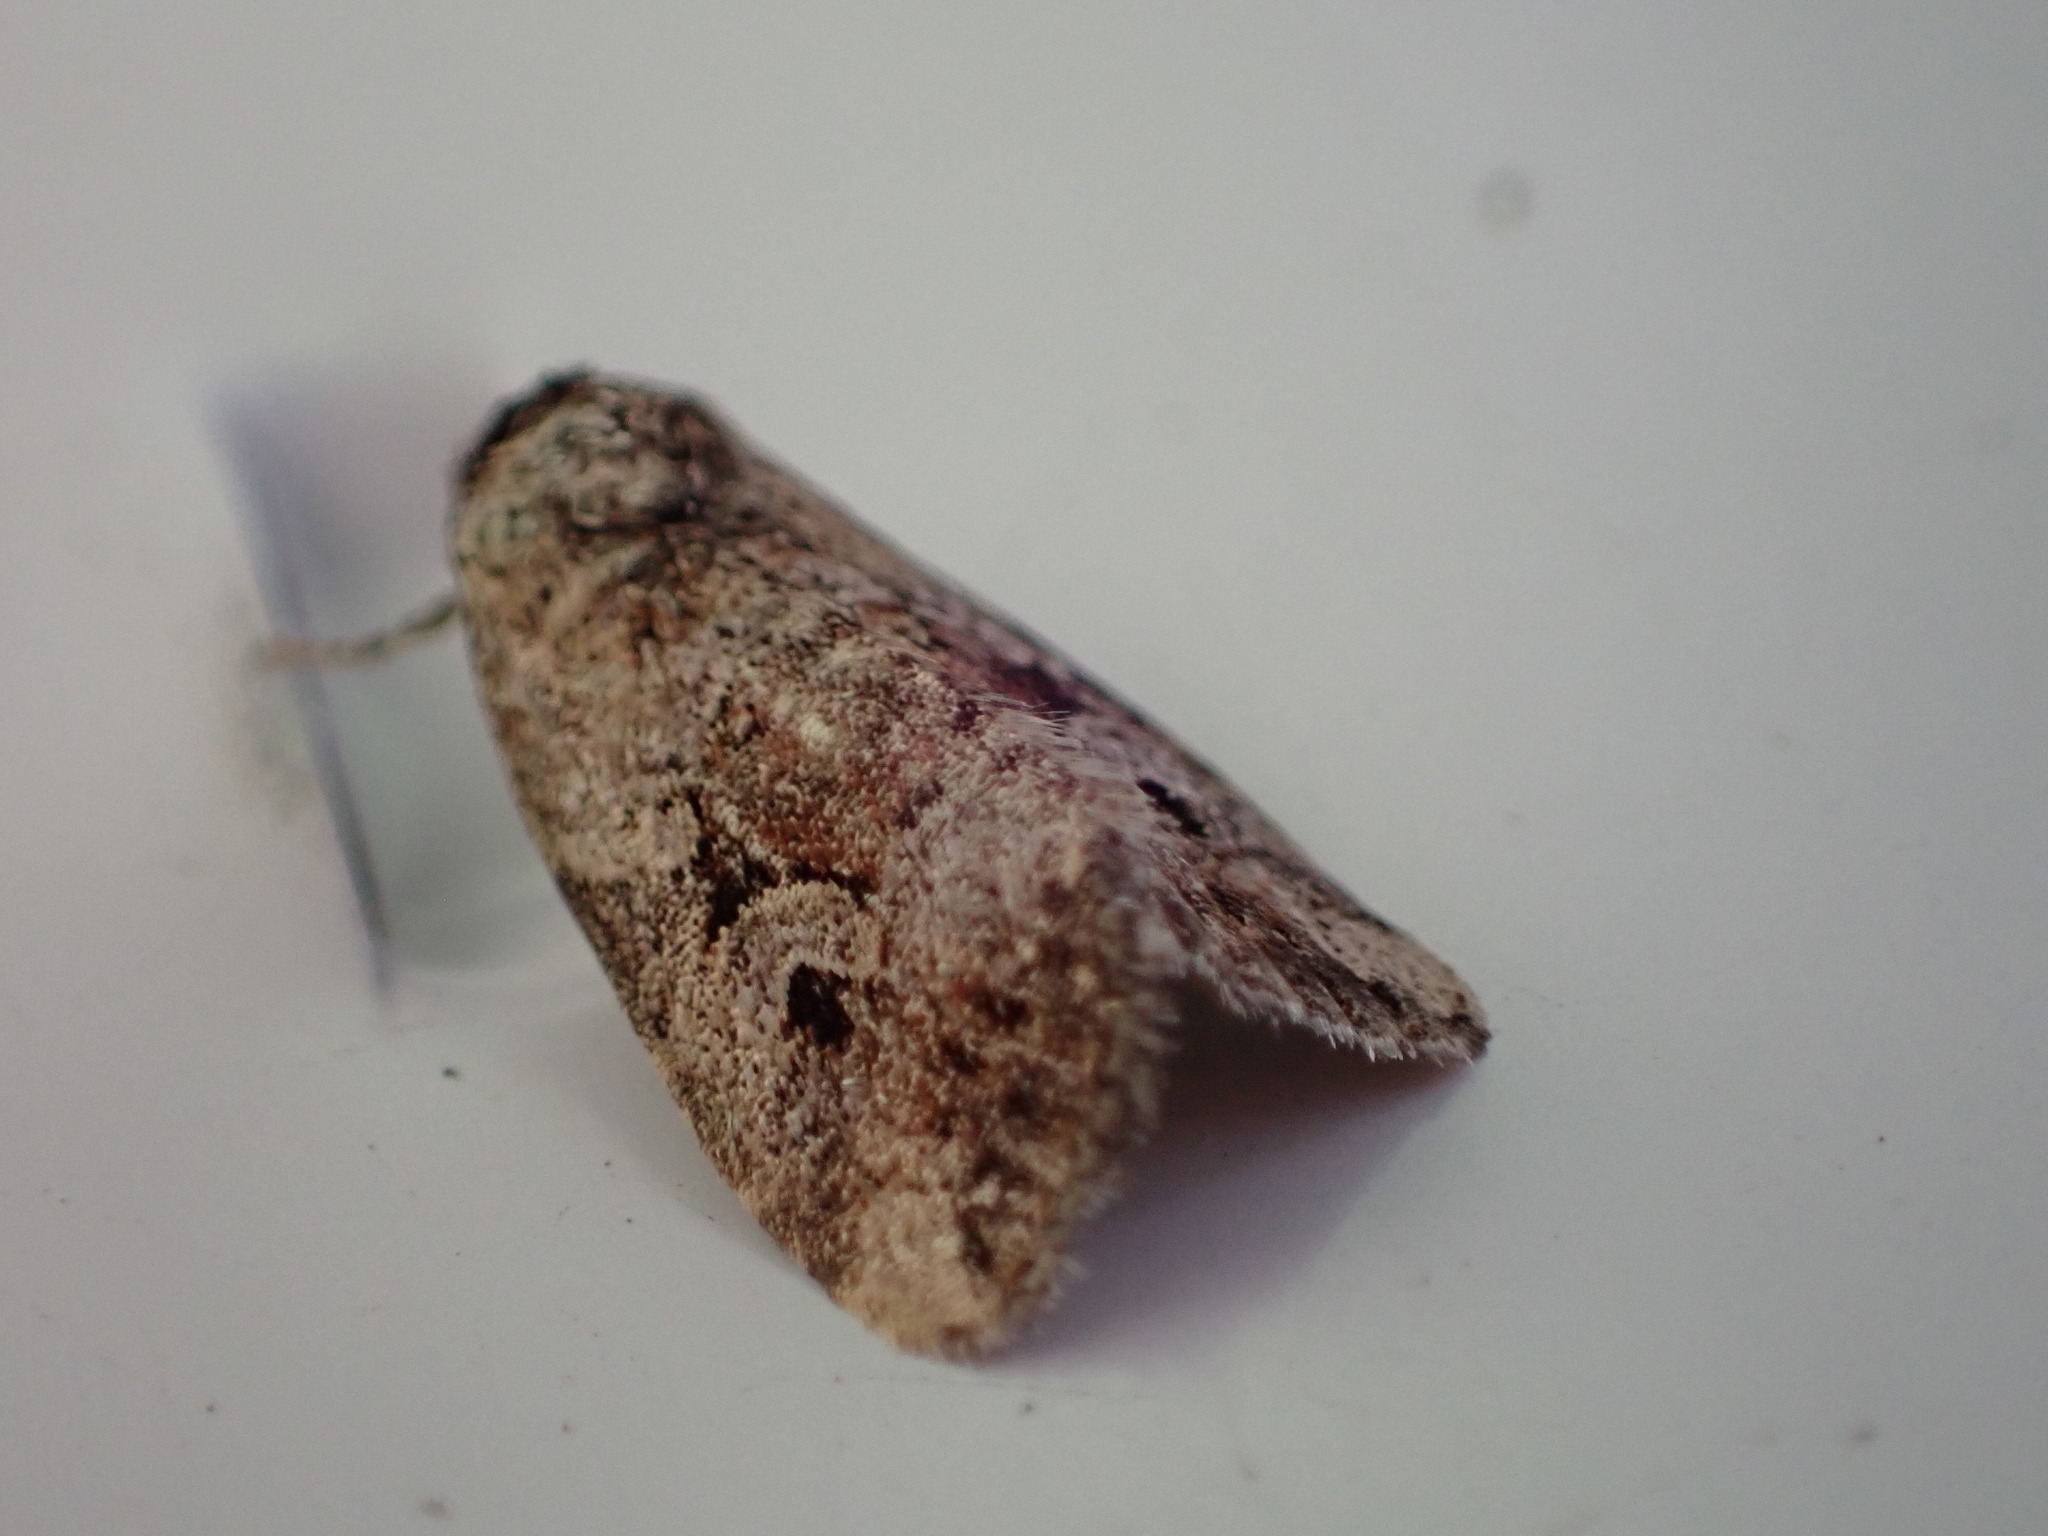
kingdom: Animalia
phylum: Arthropoda
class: Insecta
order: Lepidoptera
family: Noctuidae
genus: Elaphria
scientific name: Elaphria alapallida
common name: Pale-winged midget
